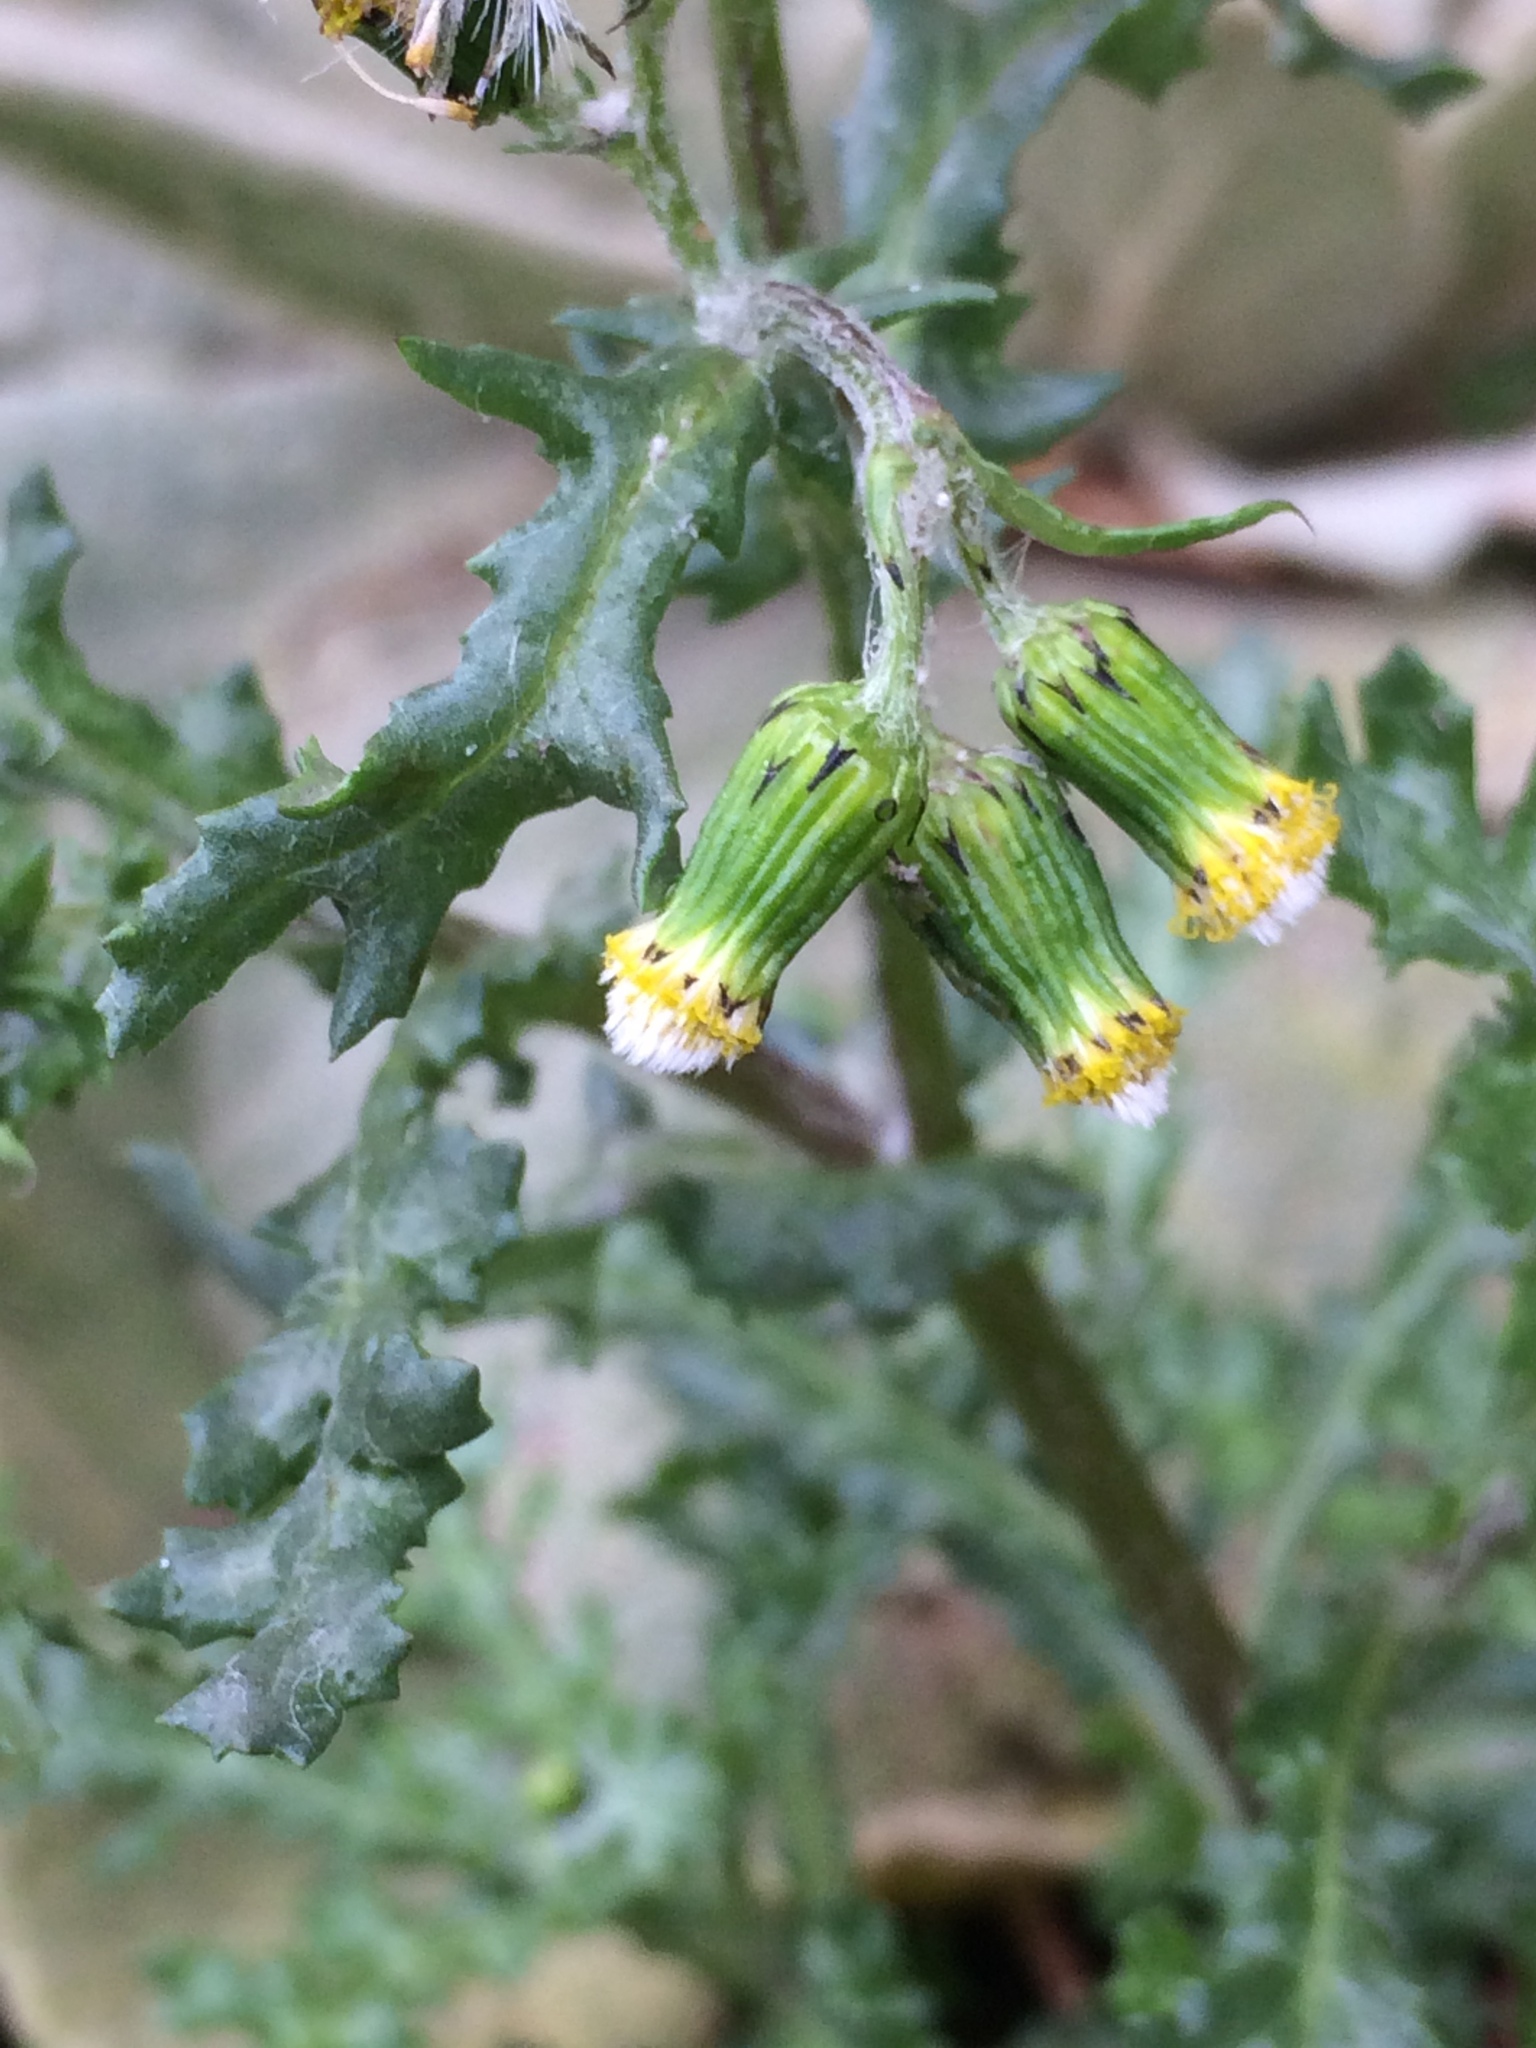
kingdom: Plantae
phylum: Tracheophyta
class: Magnoliopsida
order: Asterales
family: Asteraceae
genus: Senecio
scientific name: Senecio vulgaris
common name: Old-man-in-the-spring
